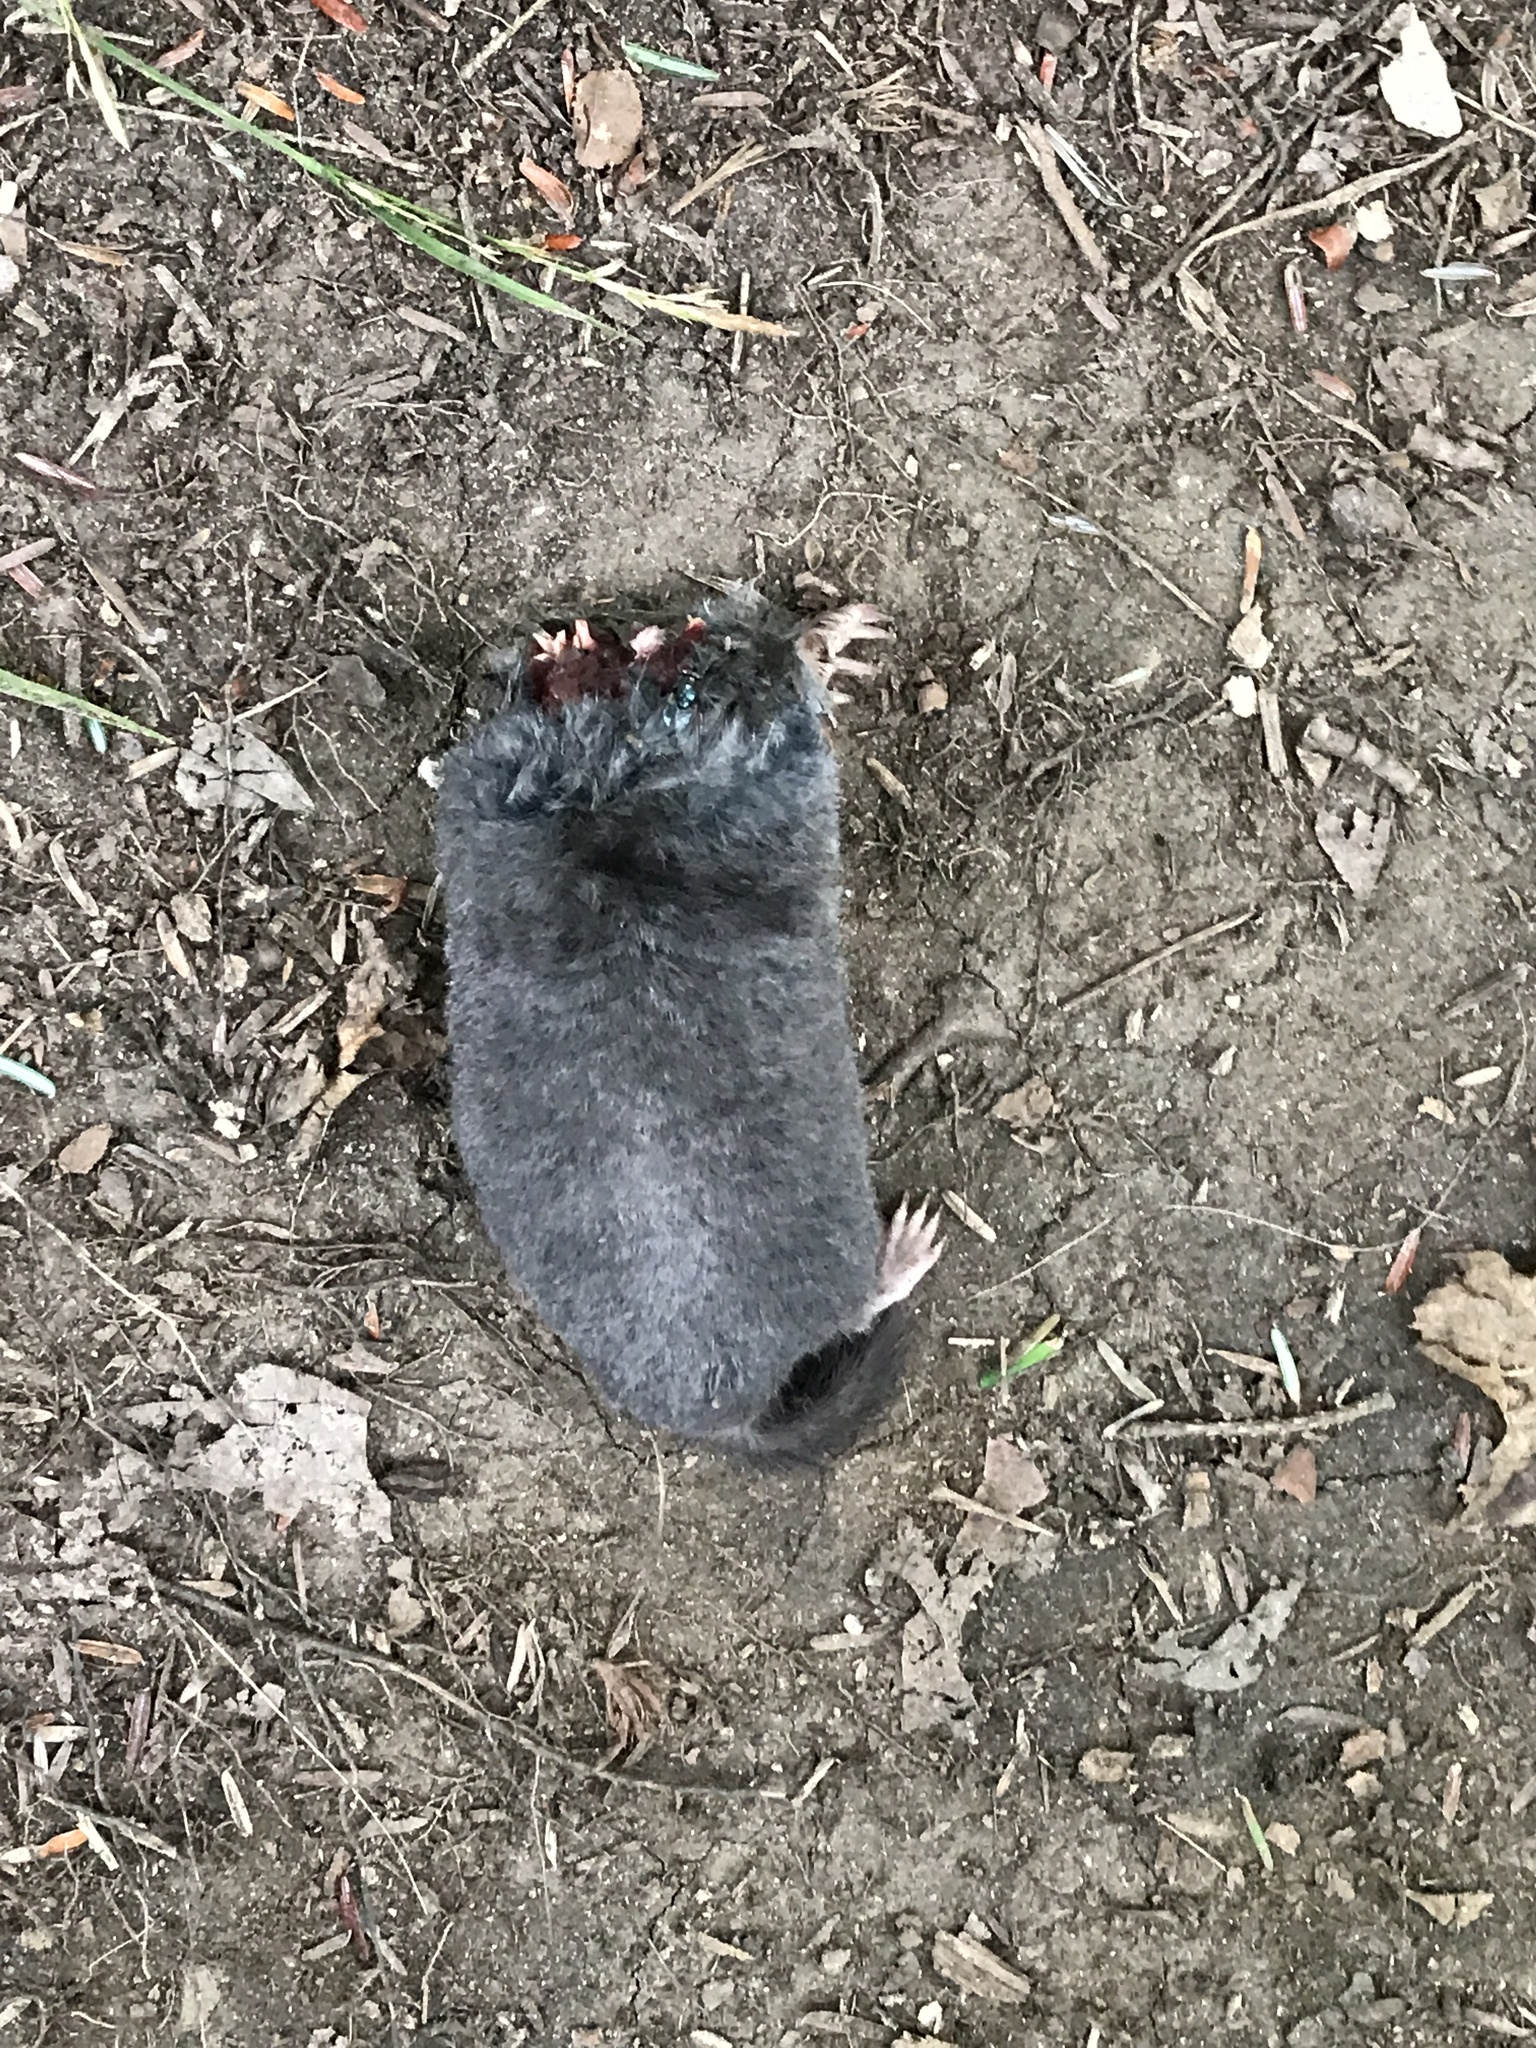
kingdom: Animalia
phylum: Chordata
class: Mammalia
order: Soricomorpha
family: Talpidae
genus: Parascalops
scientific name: Parascalops breweri
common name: Hairy-tailed mole
